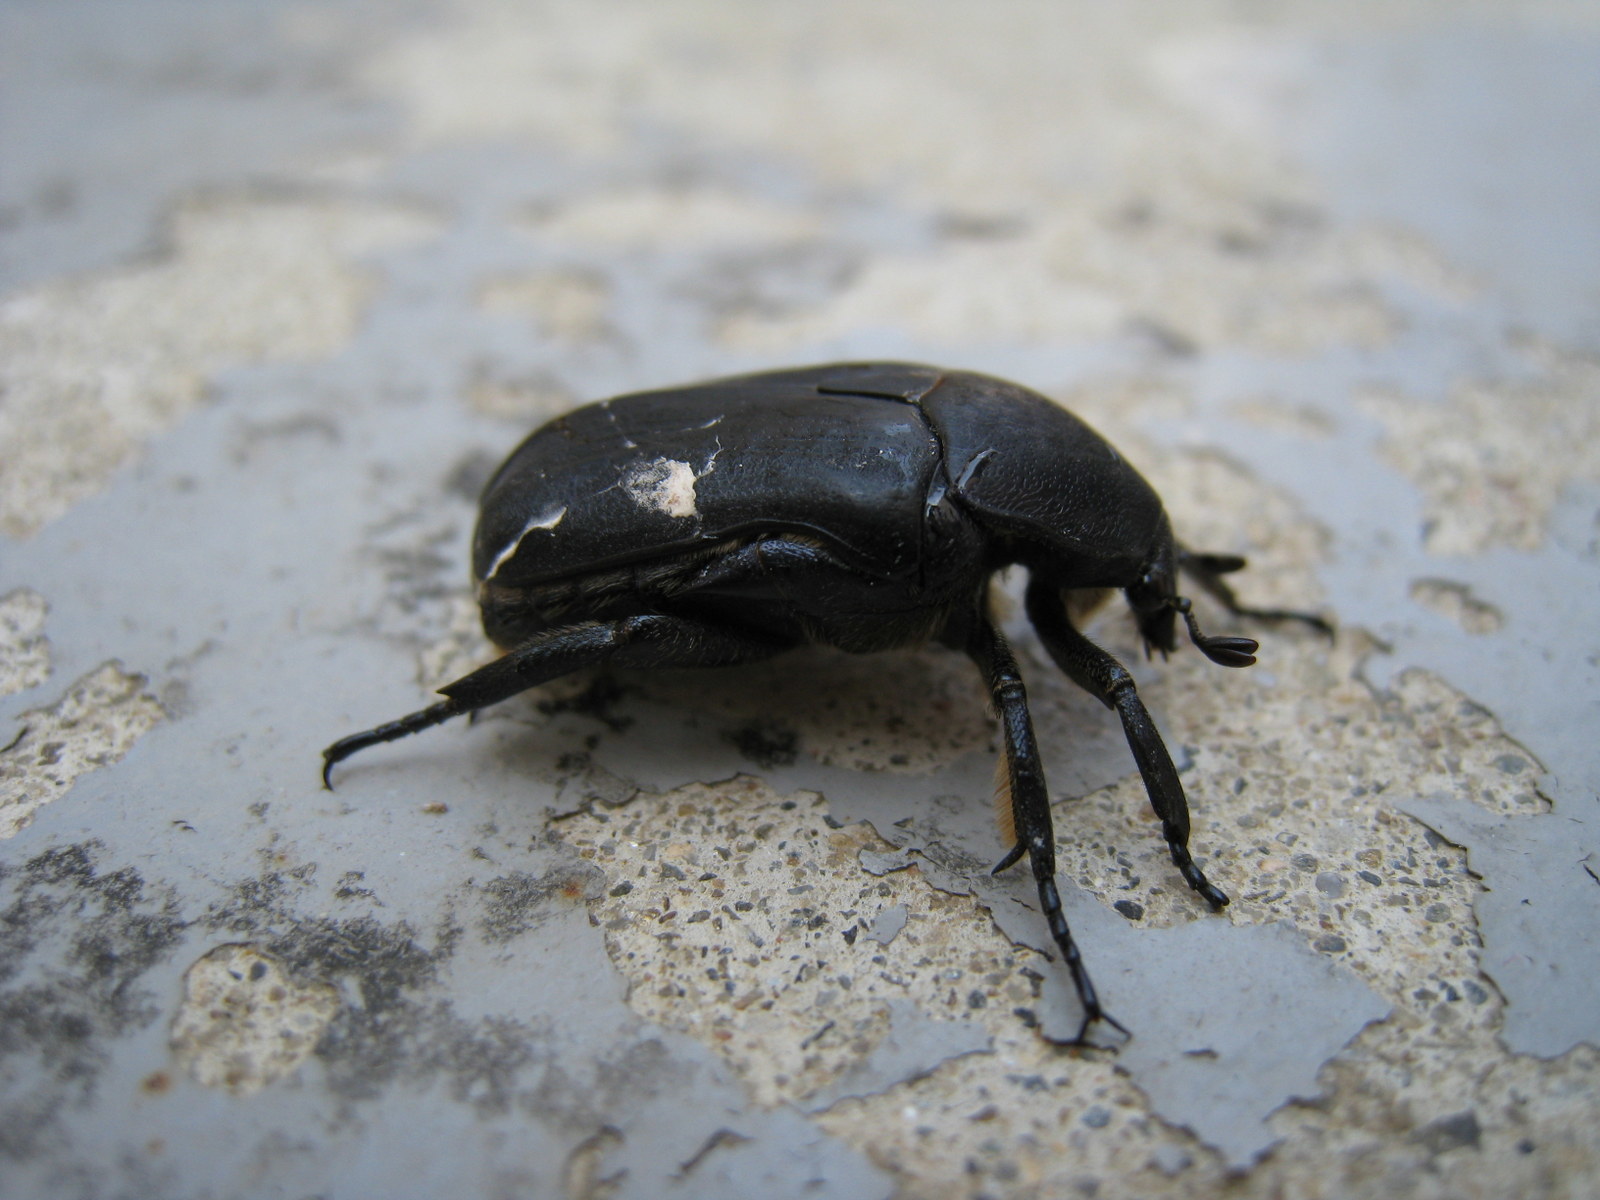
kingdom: Animalia
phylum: Arthropoda
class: Insecta
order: Coleoptera
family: Scarabaeidae
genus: Protaetia
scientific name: Protaetia opaca
